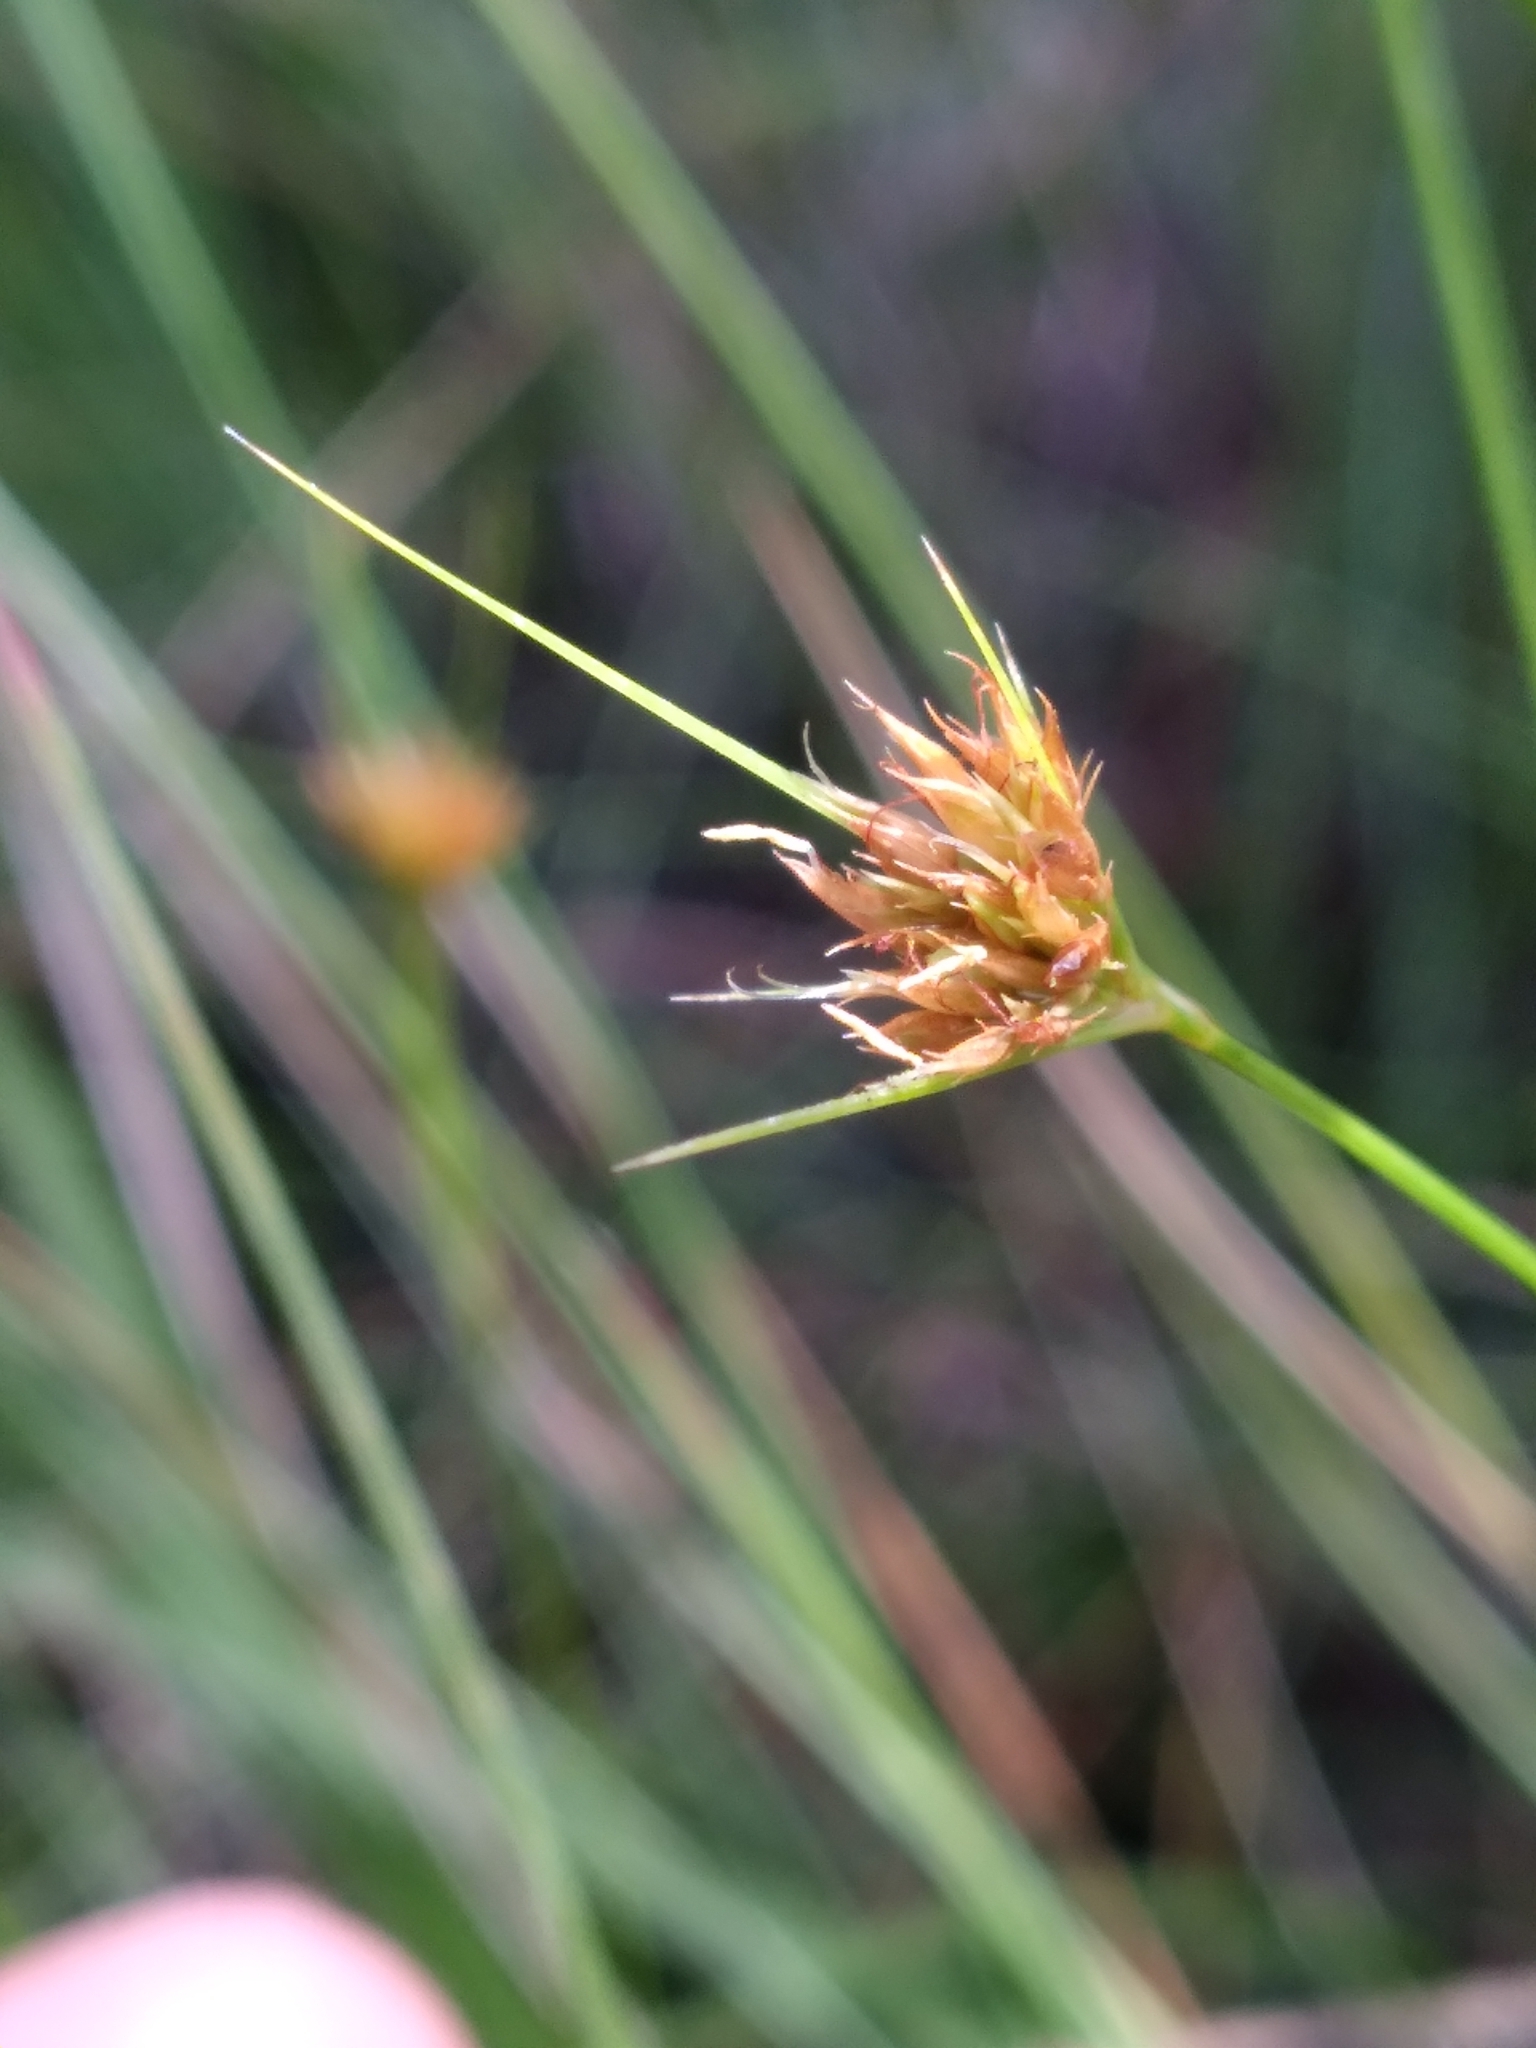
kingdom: Plantae
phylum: Tracheophyta
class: Liliopsida
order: Poales
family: Cyperaceae
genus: Rhynchospora
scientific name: Rhynchospora chapmanii
